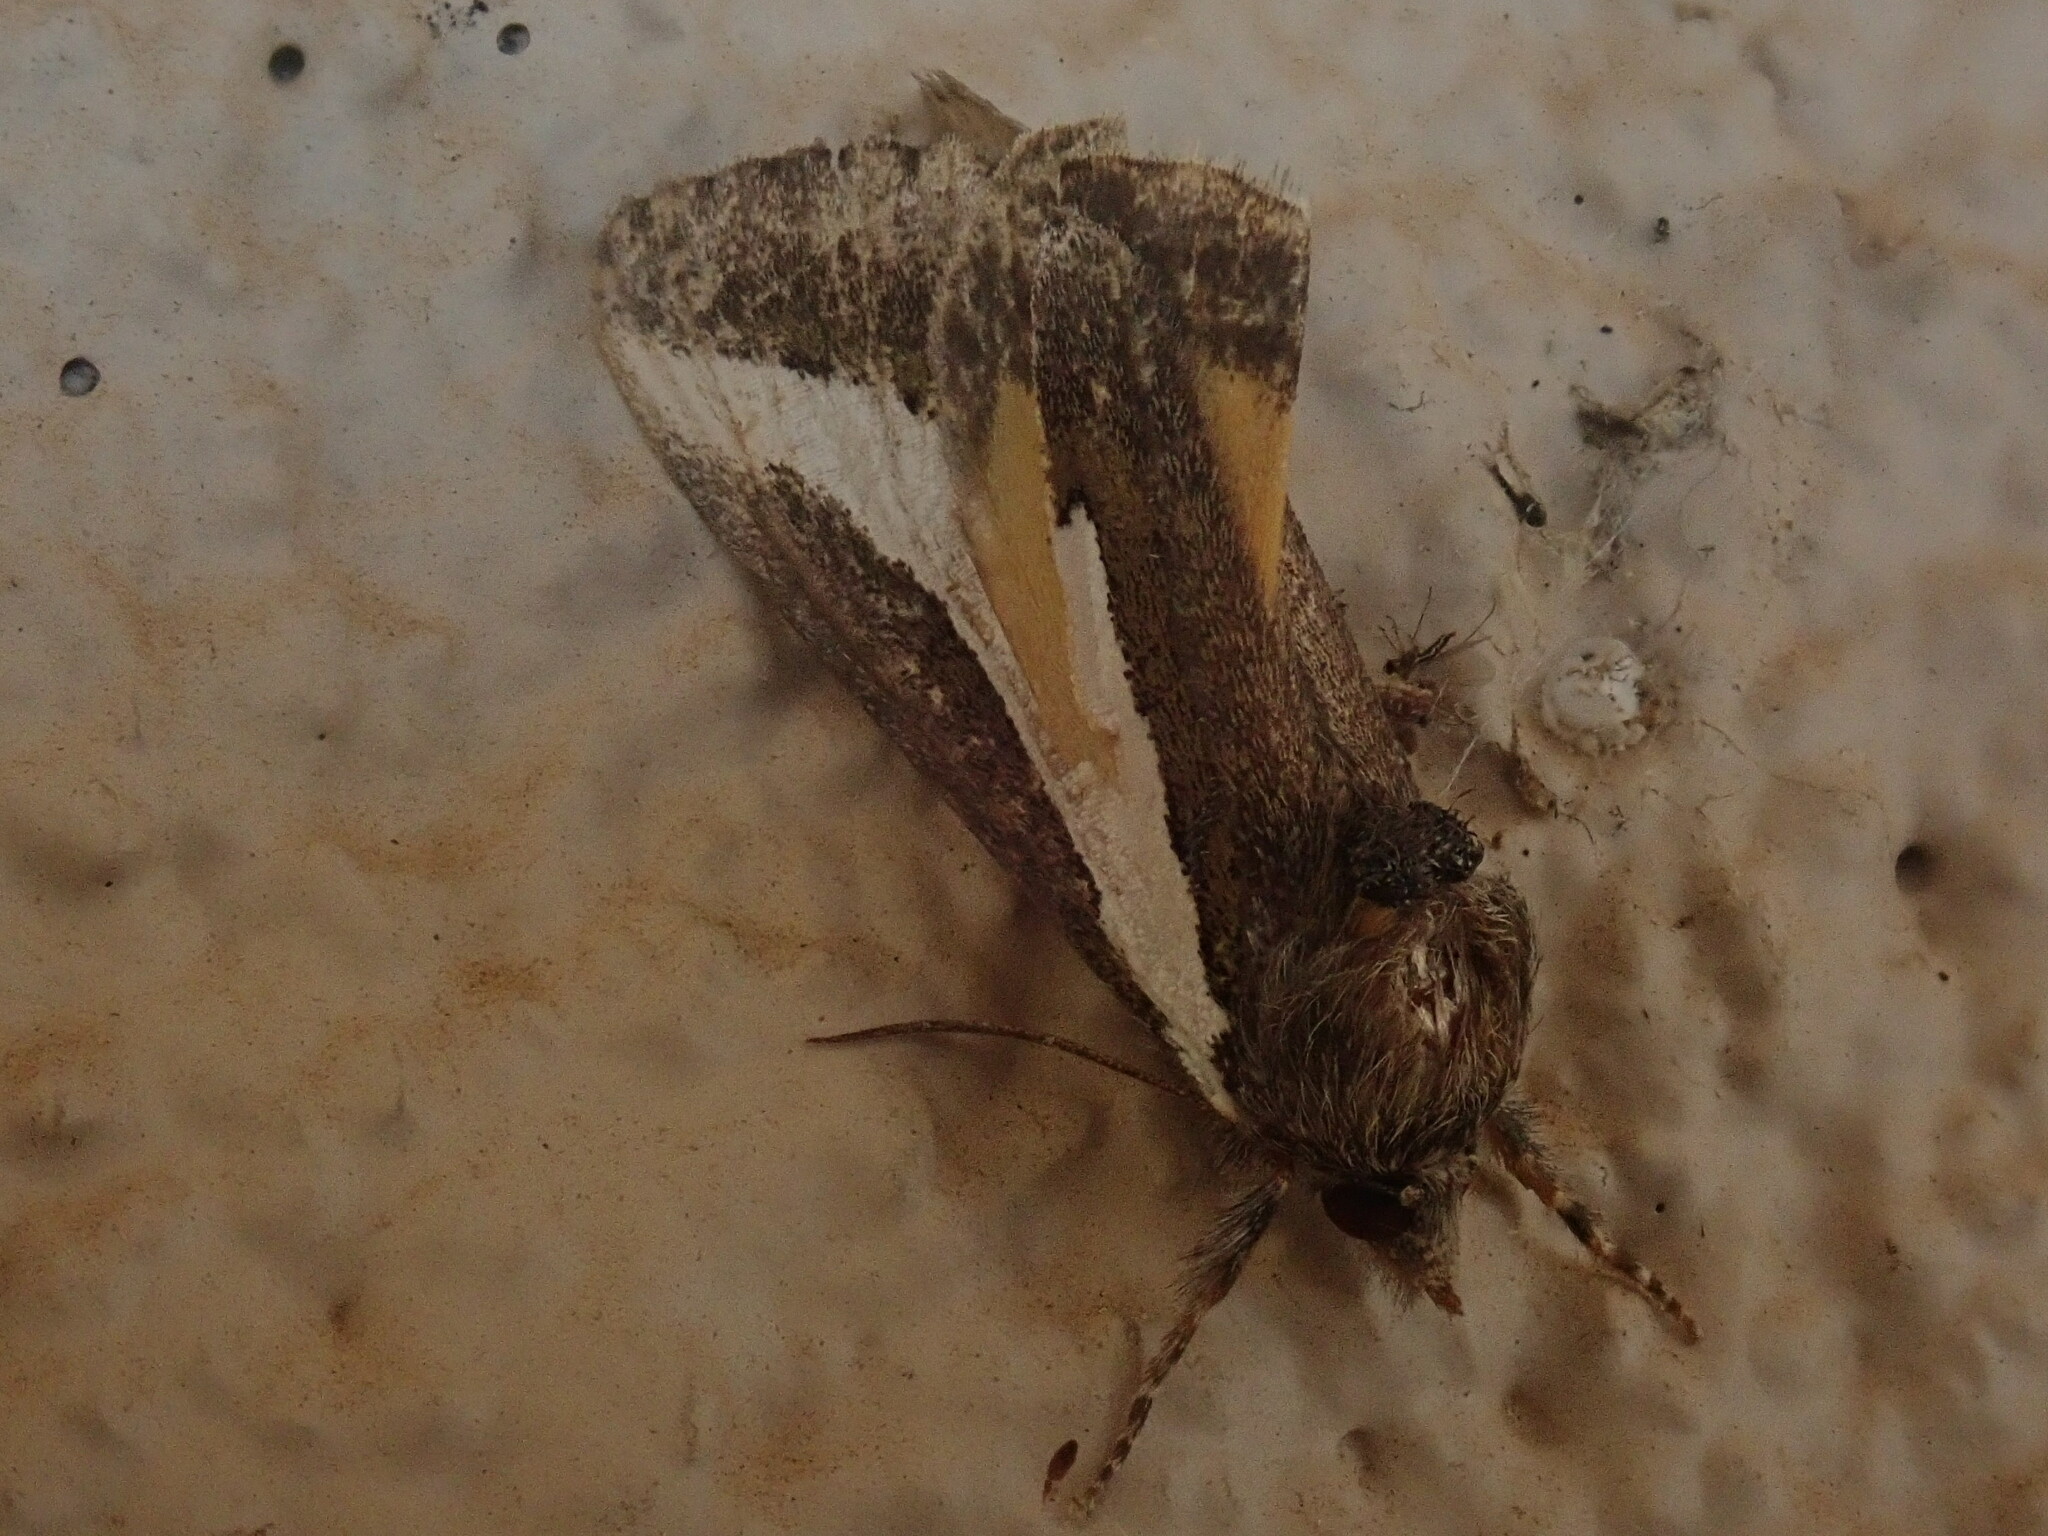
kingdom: Animalia
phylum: Arthropoda
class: Insecta
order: Lepidoptera
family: Noctuidae
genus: Euscirrhopterus
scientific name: Euscirrhopterus cosyra
